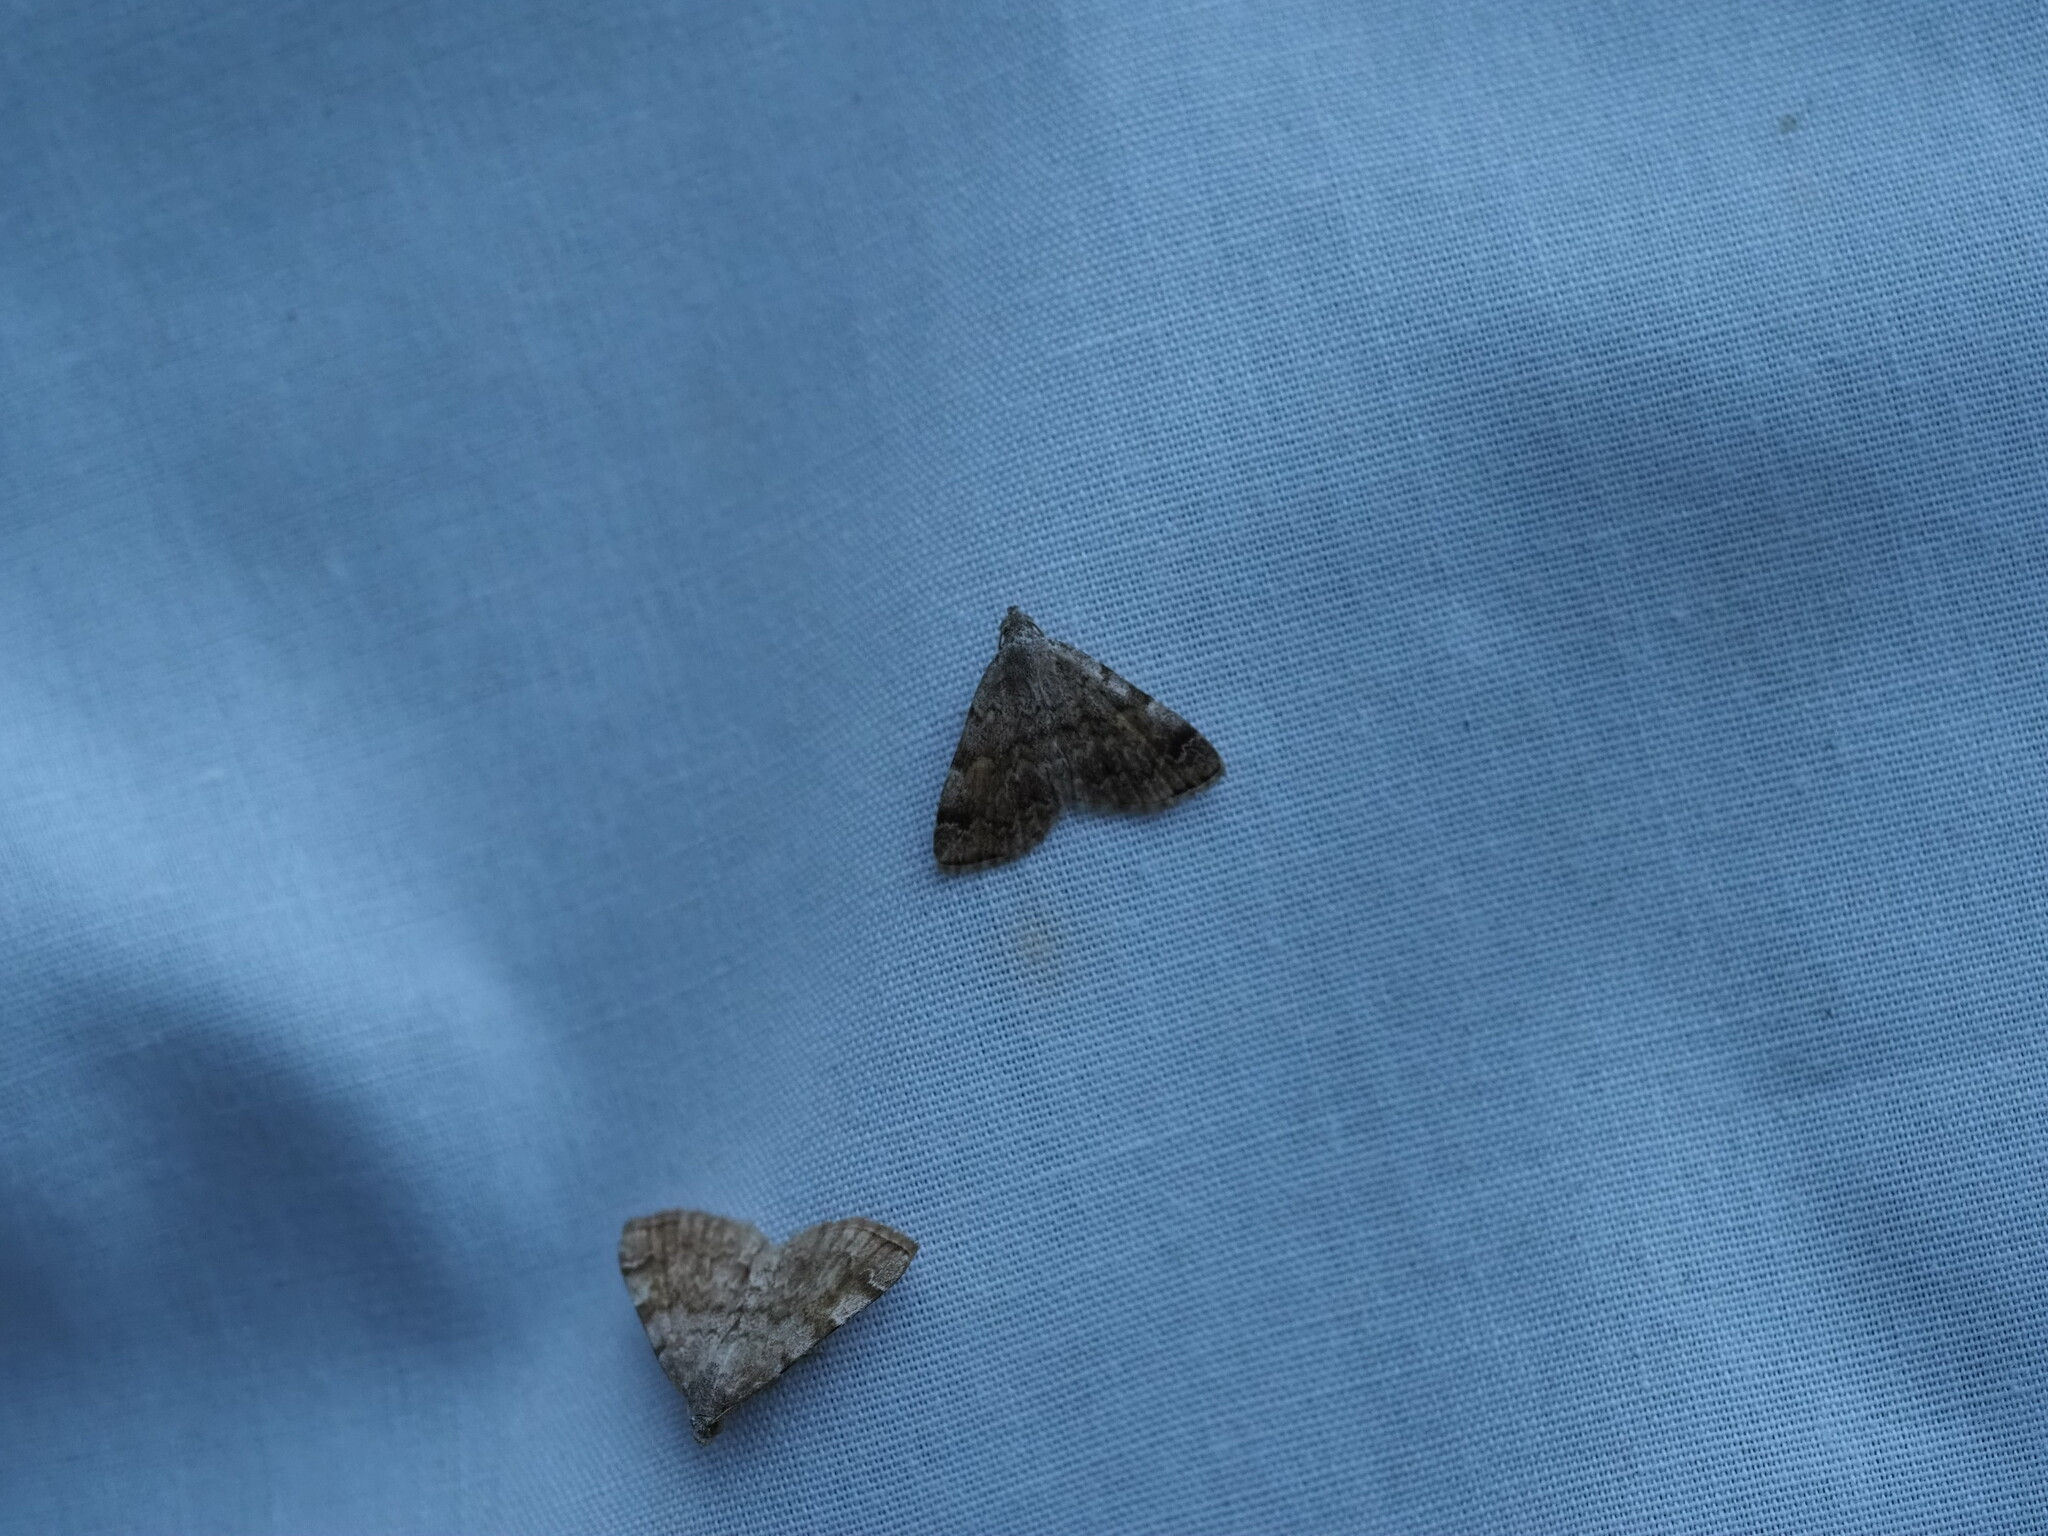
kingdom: Animalia
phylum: Arthropoda
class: Insecta
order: Lepidoptera
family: Erebidae
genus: Idia
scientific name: Idia americalis
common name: American idia moth
